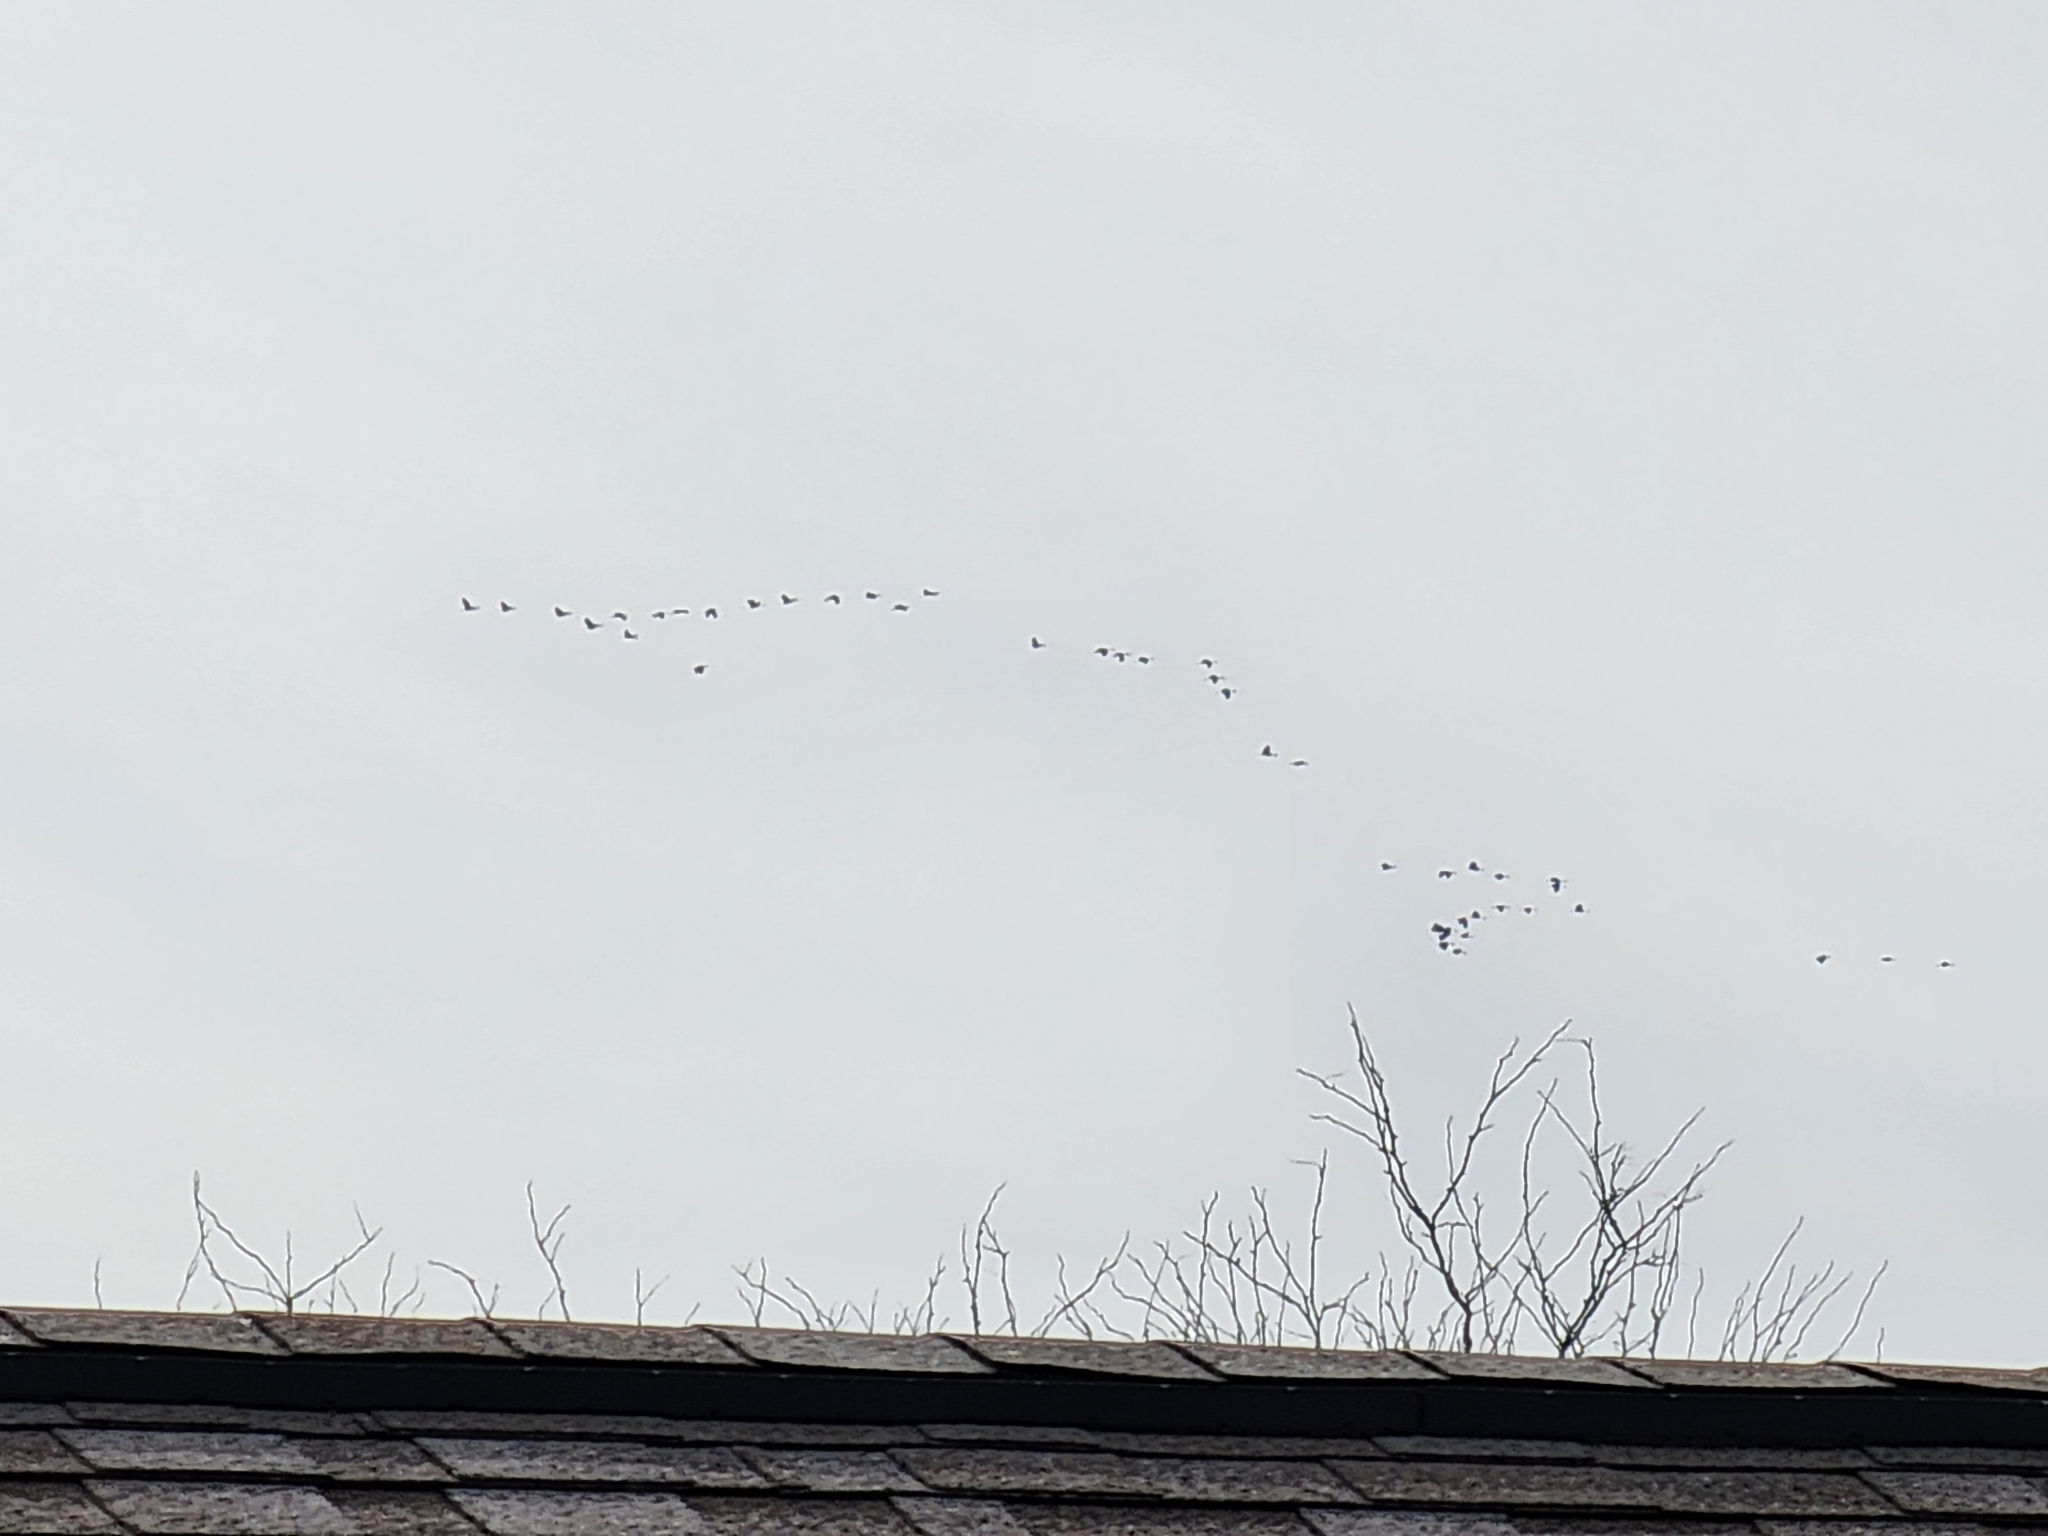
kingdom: Animalia
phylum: Chordata
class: Aves
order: Gruiformes
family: Gruidae
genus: Grus
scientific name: Grus canadensis
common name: Sandhill crane
